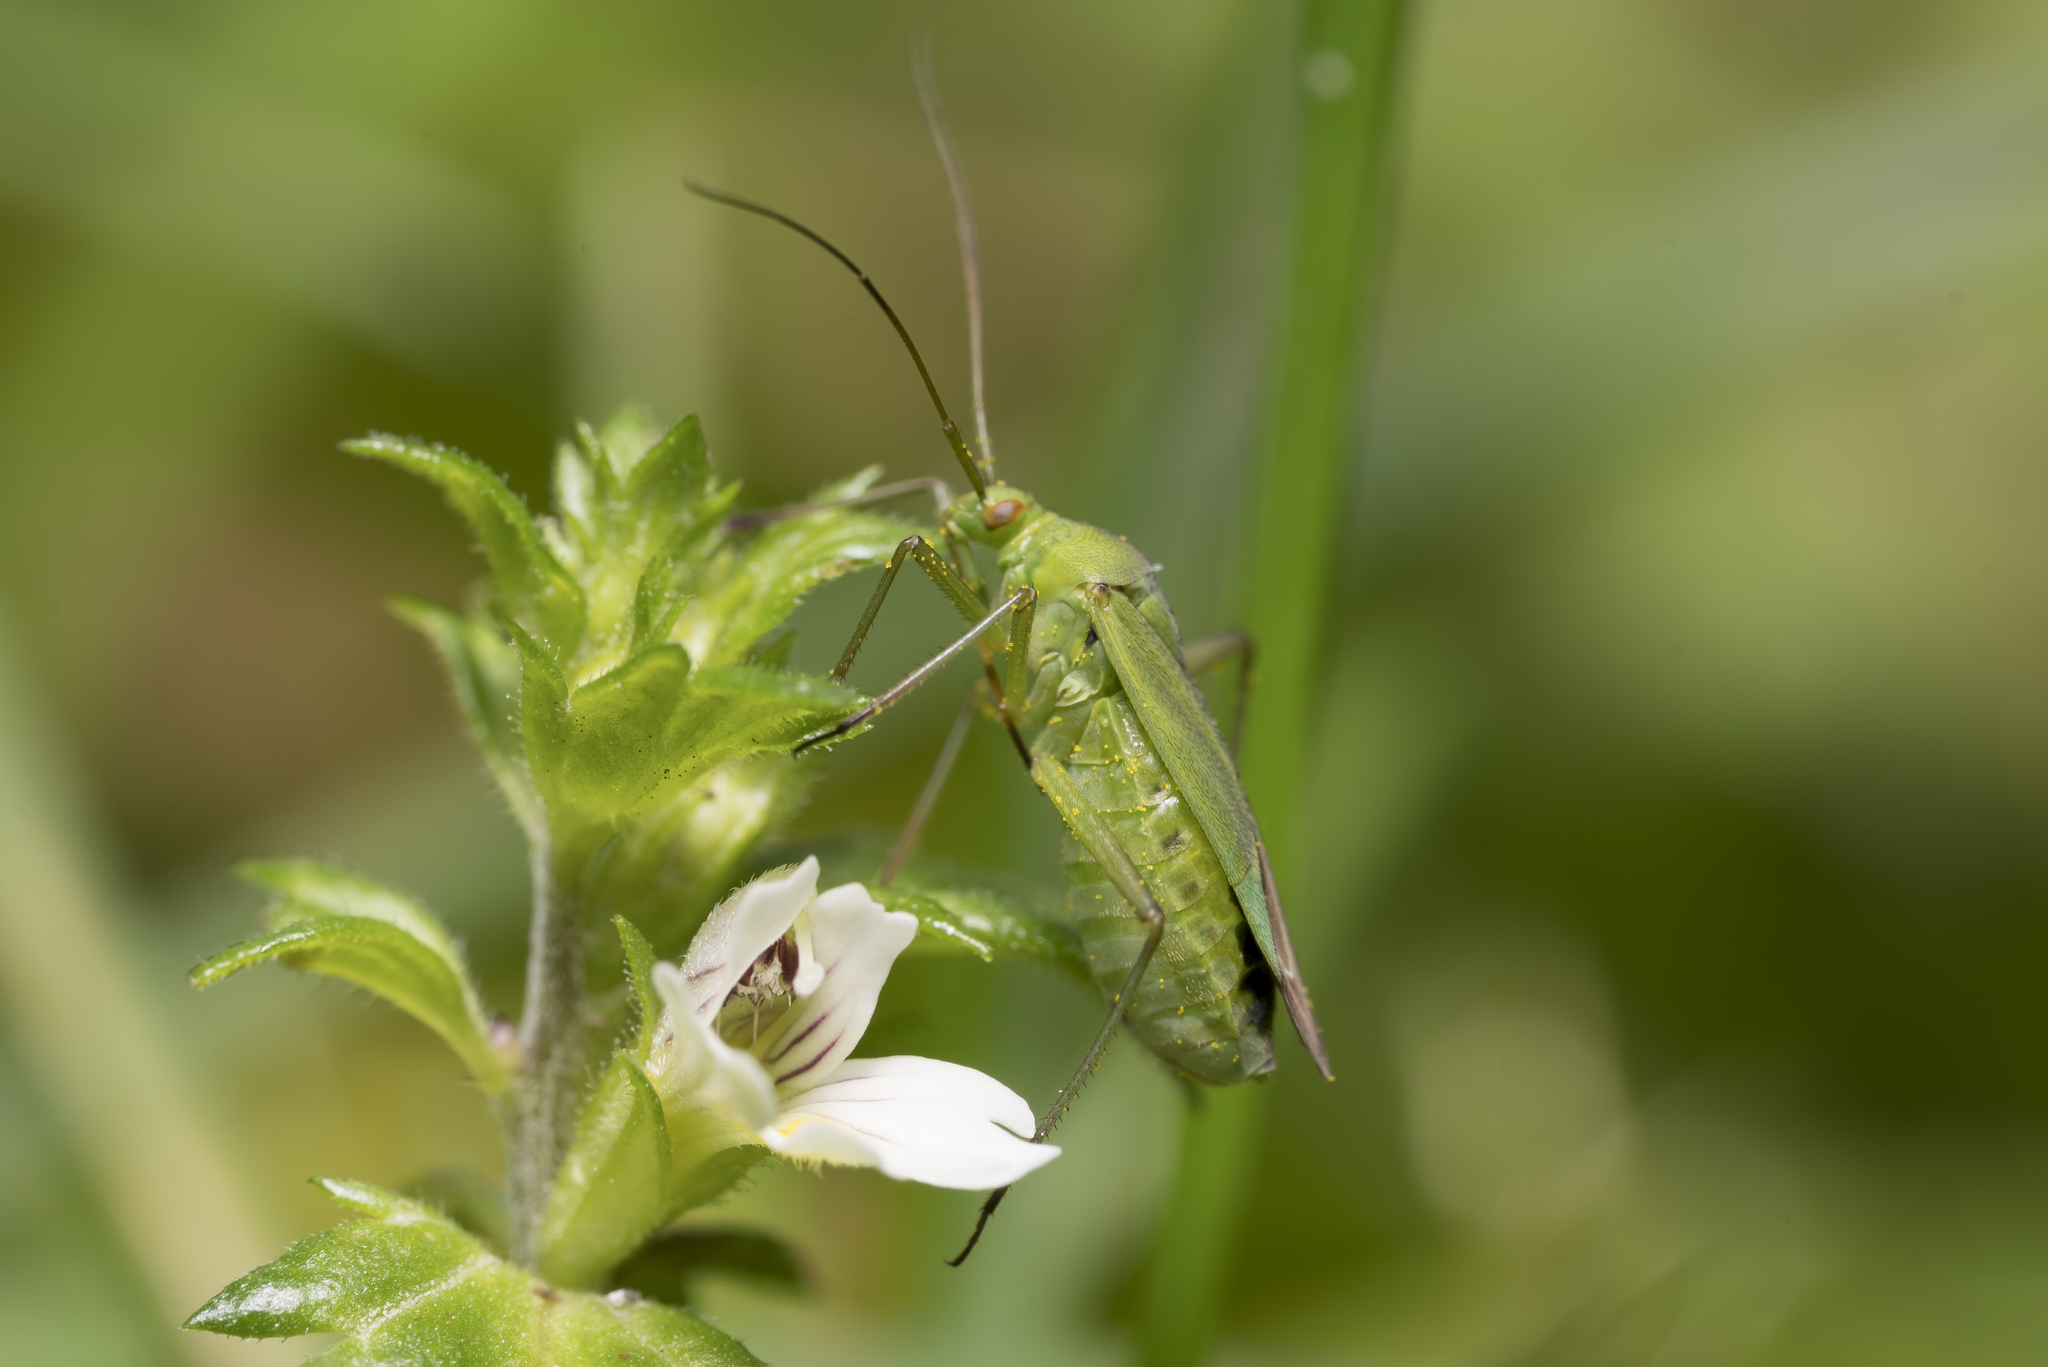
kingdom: Animalia
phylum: Arthropoda
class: Insecta
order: Hemiptera
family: Miridae
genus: Calocoris
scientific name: Calocoris affinis
